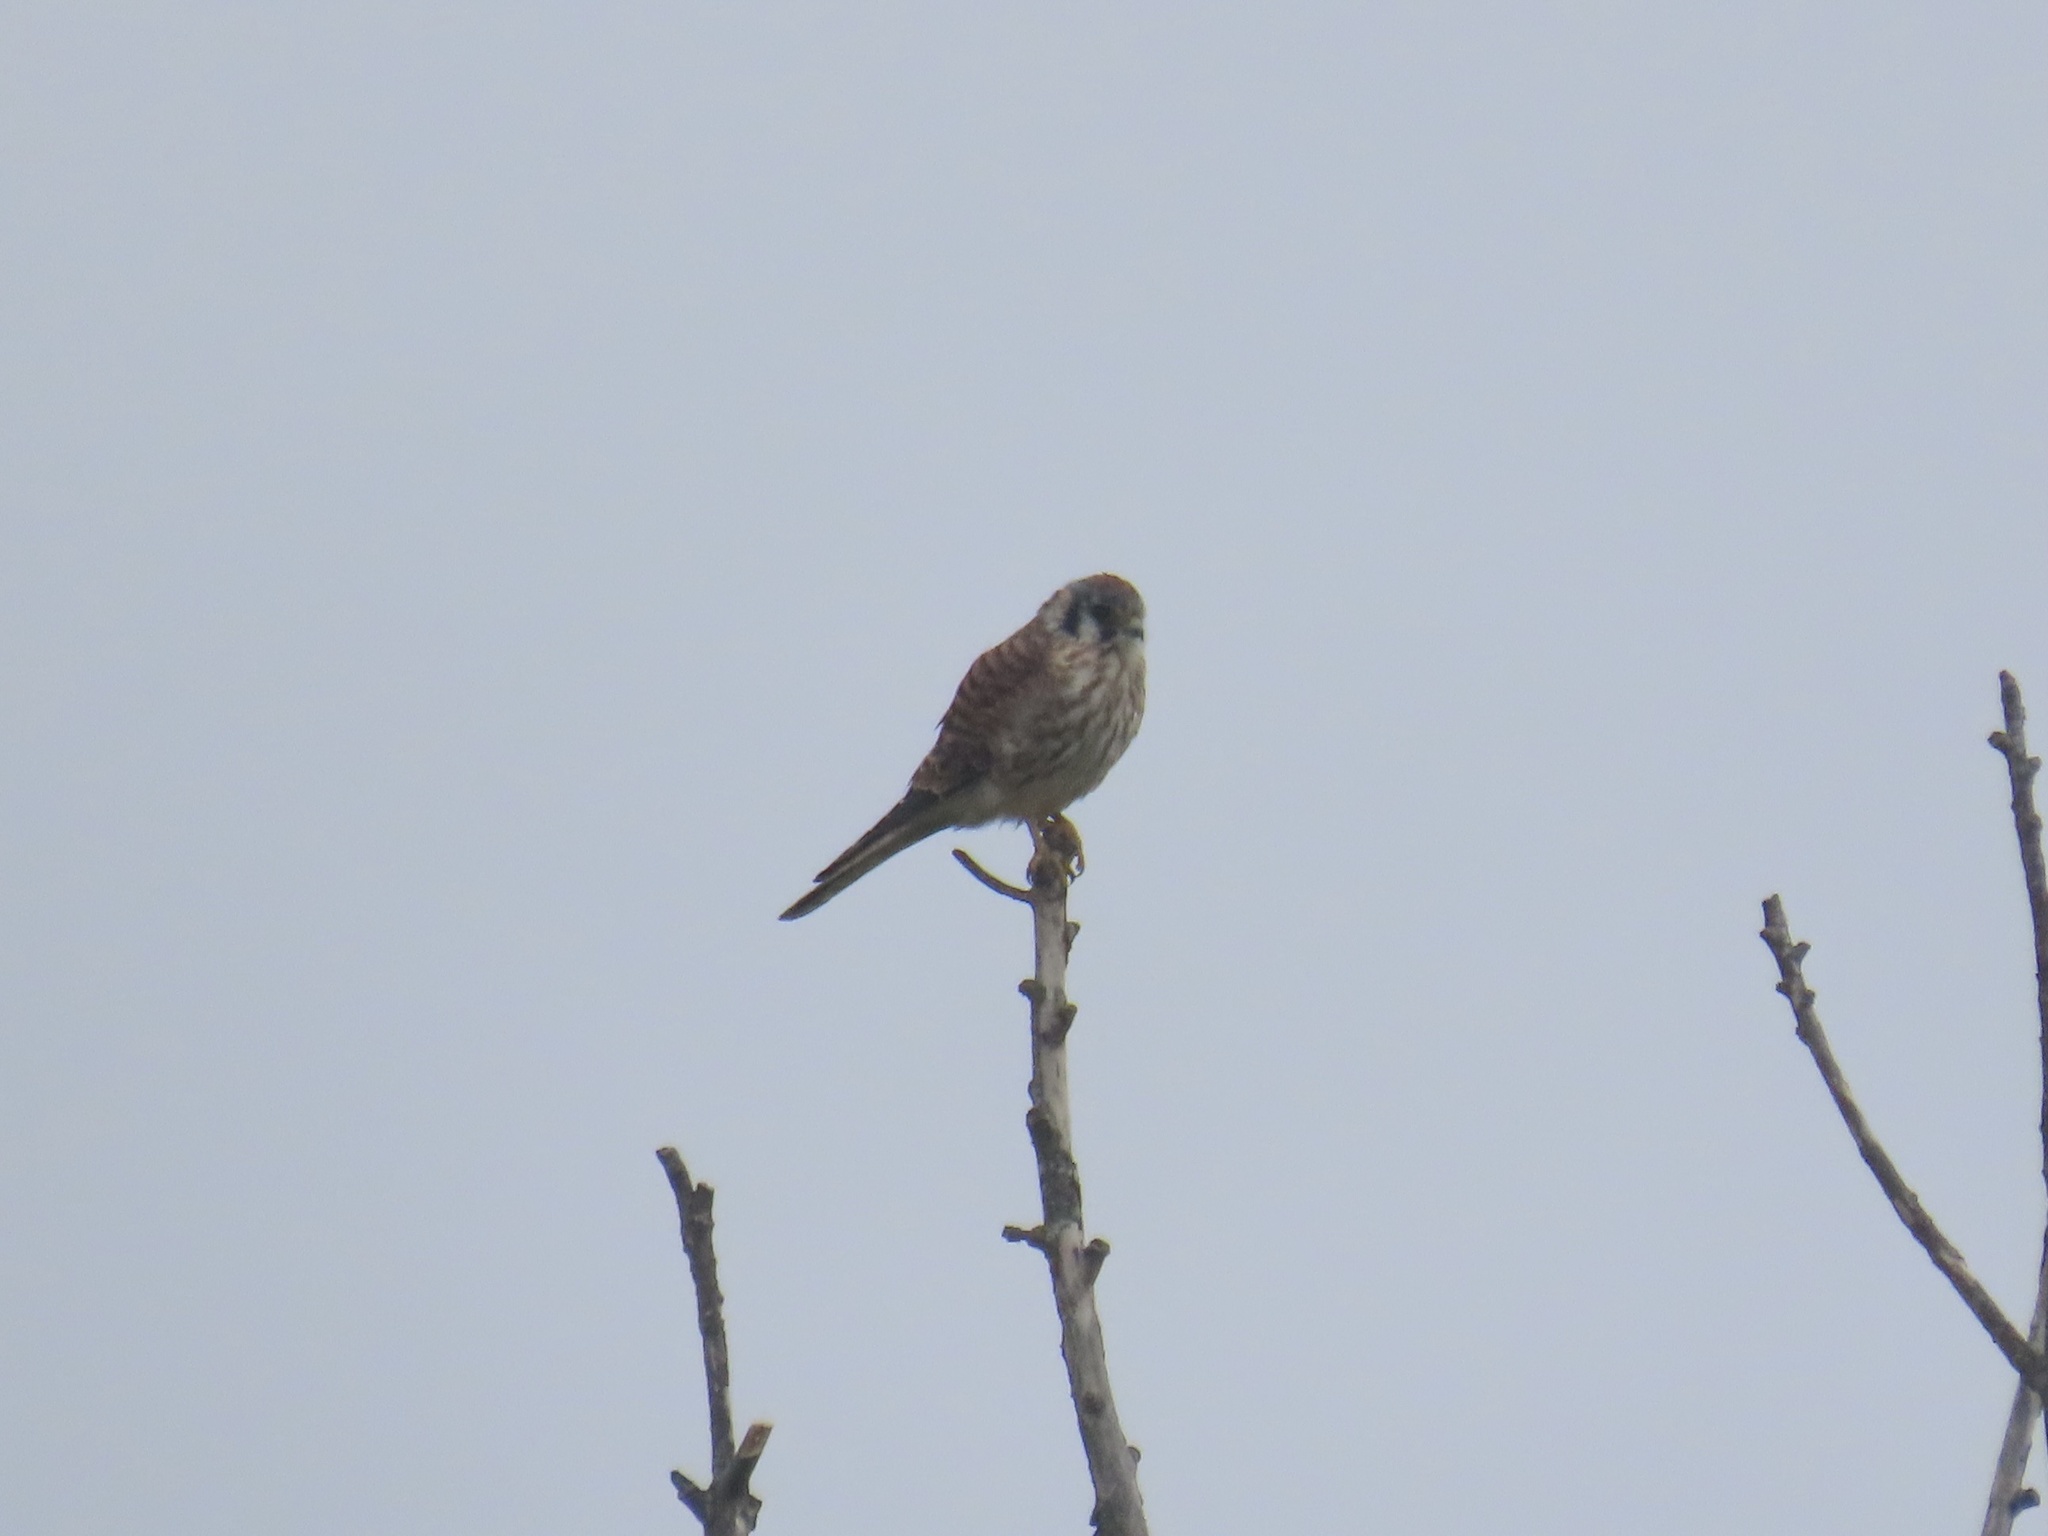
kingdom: Animalia
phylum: Chordata
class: Aves
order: Falconiformes
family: Falconidae
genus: Falco
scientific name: Falco sparverius
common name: American kestrel
